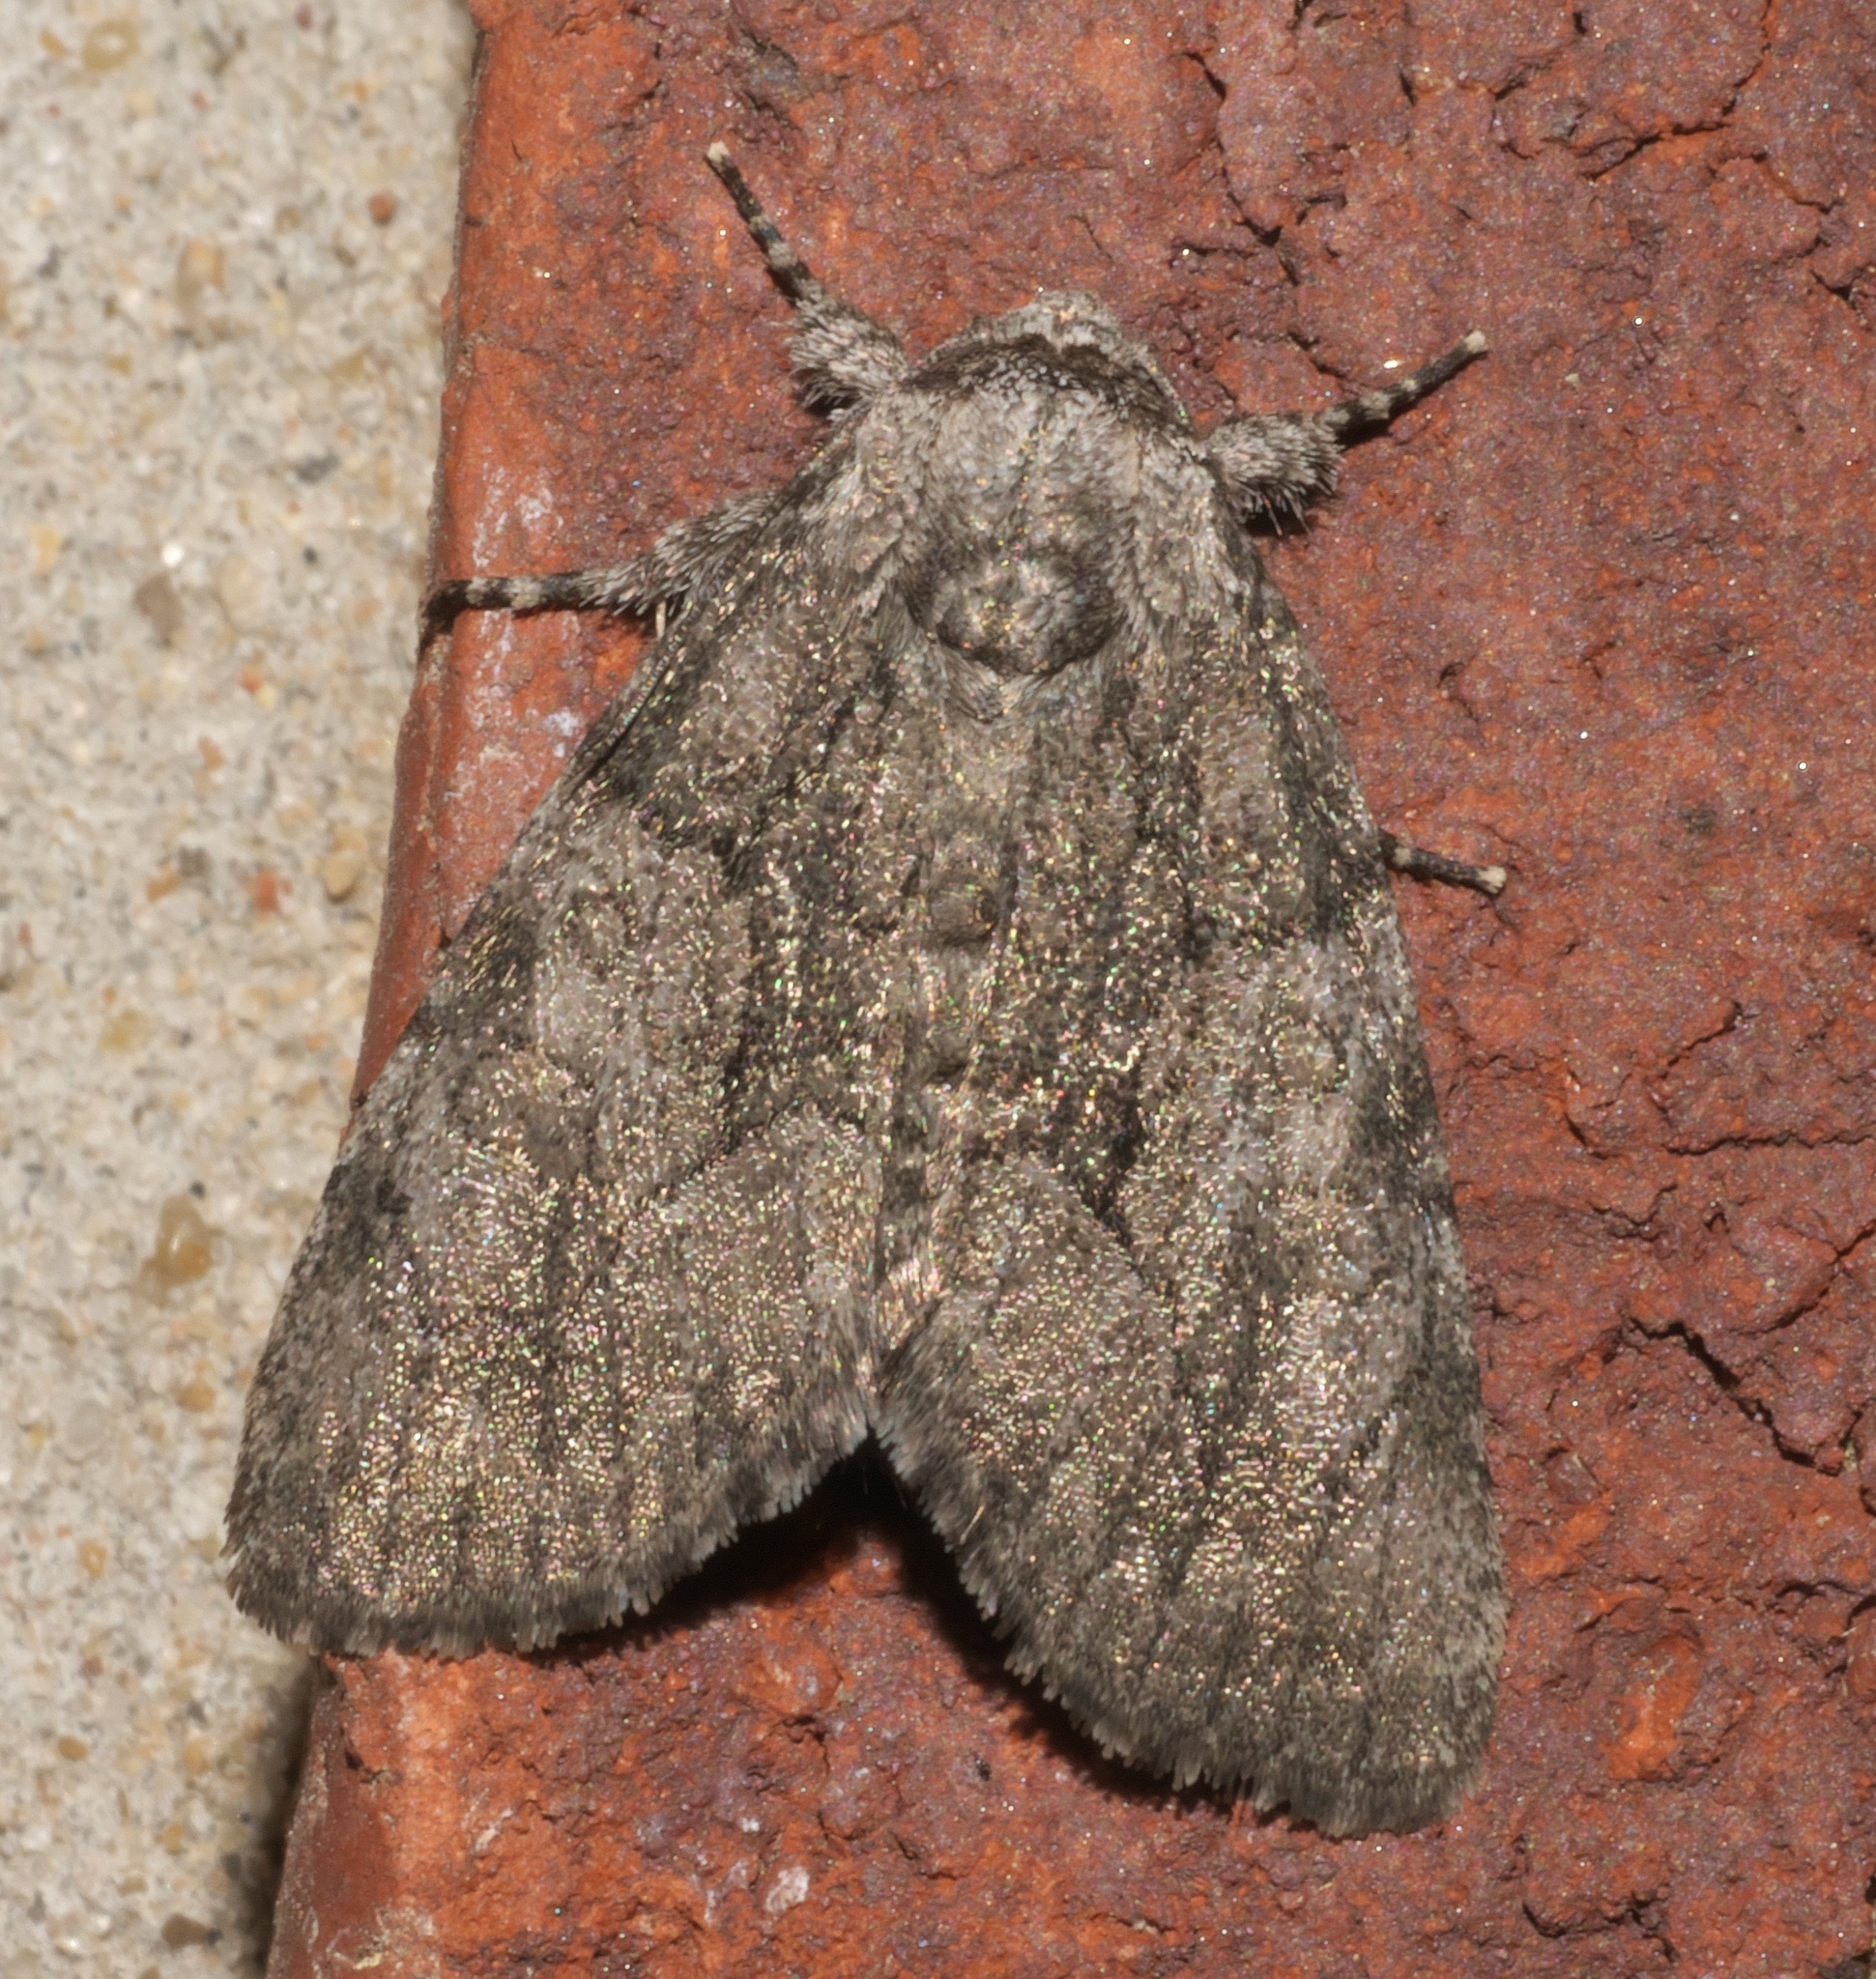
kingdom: Animalia
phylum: Arthropoda
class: Insecta
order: Lepidoptera
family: Noctuidae
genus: Raphia
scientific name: Raphia frater
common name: Brother
